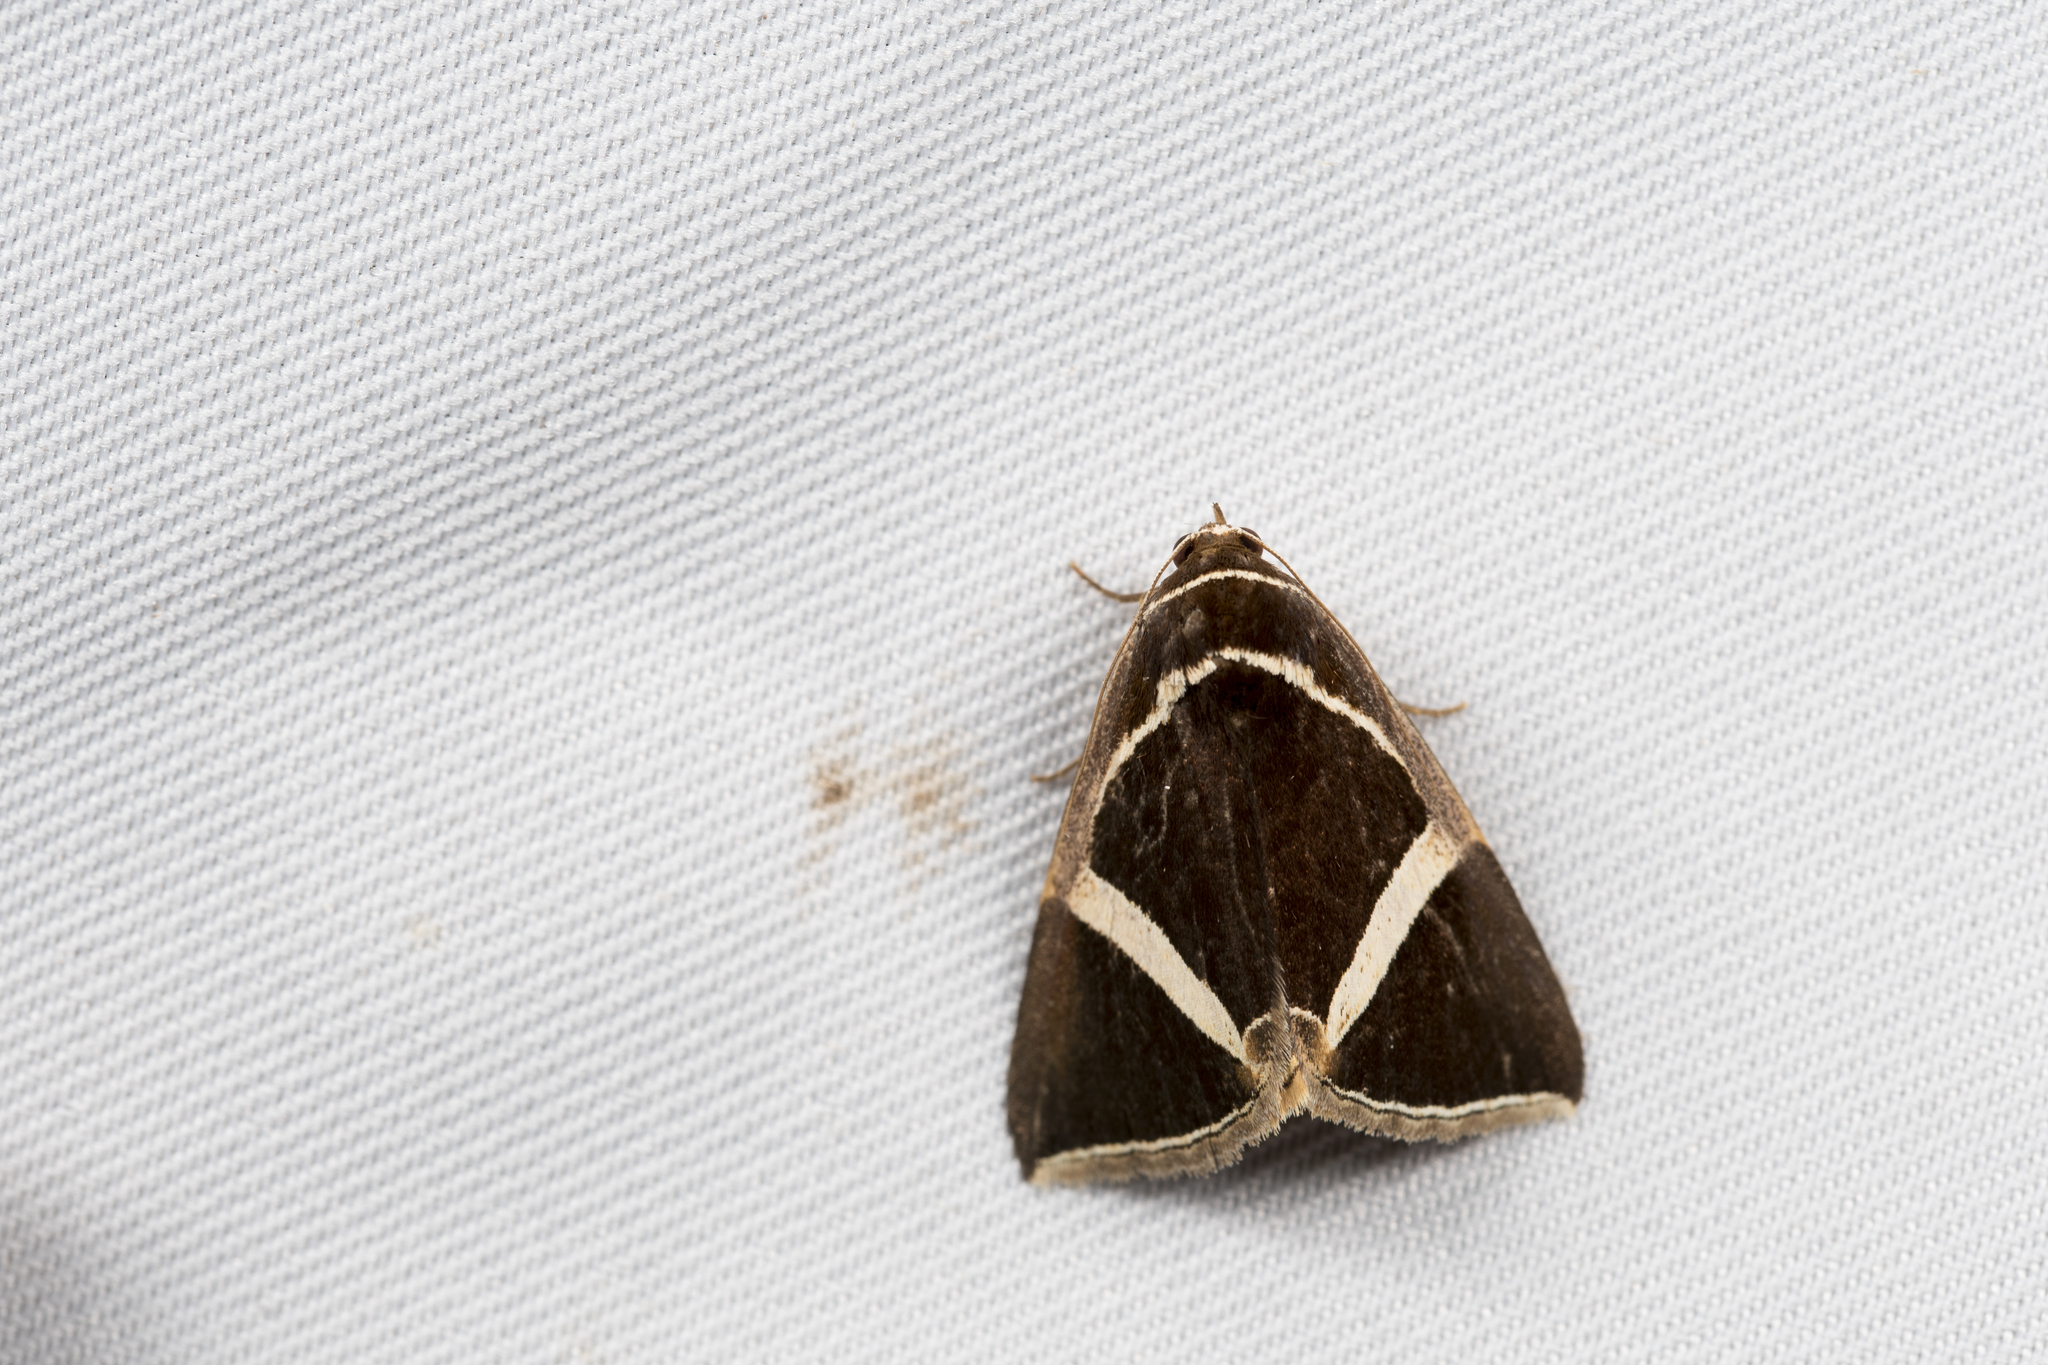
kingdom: Animalia
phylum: Arthropoda
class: Insecta
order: Lepidoptera
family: Erebidae
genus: Fodina
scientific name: Fodina kosemponis
